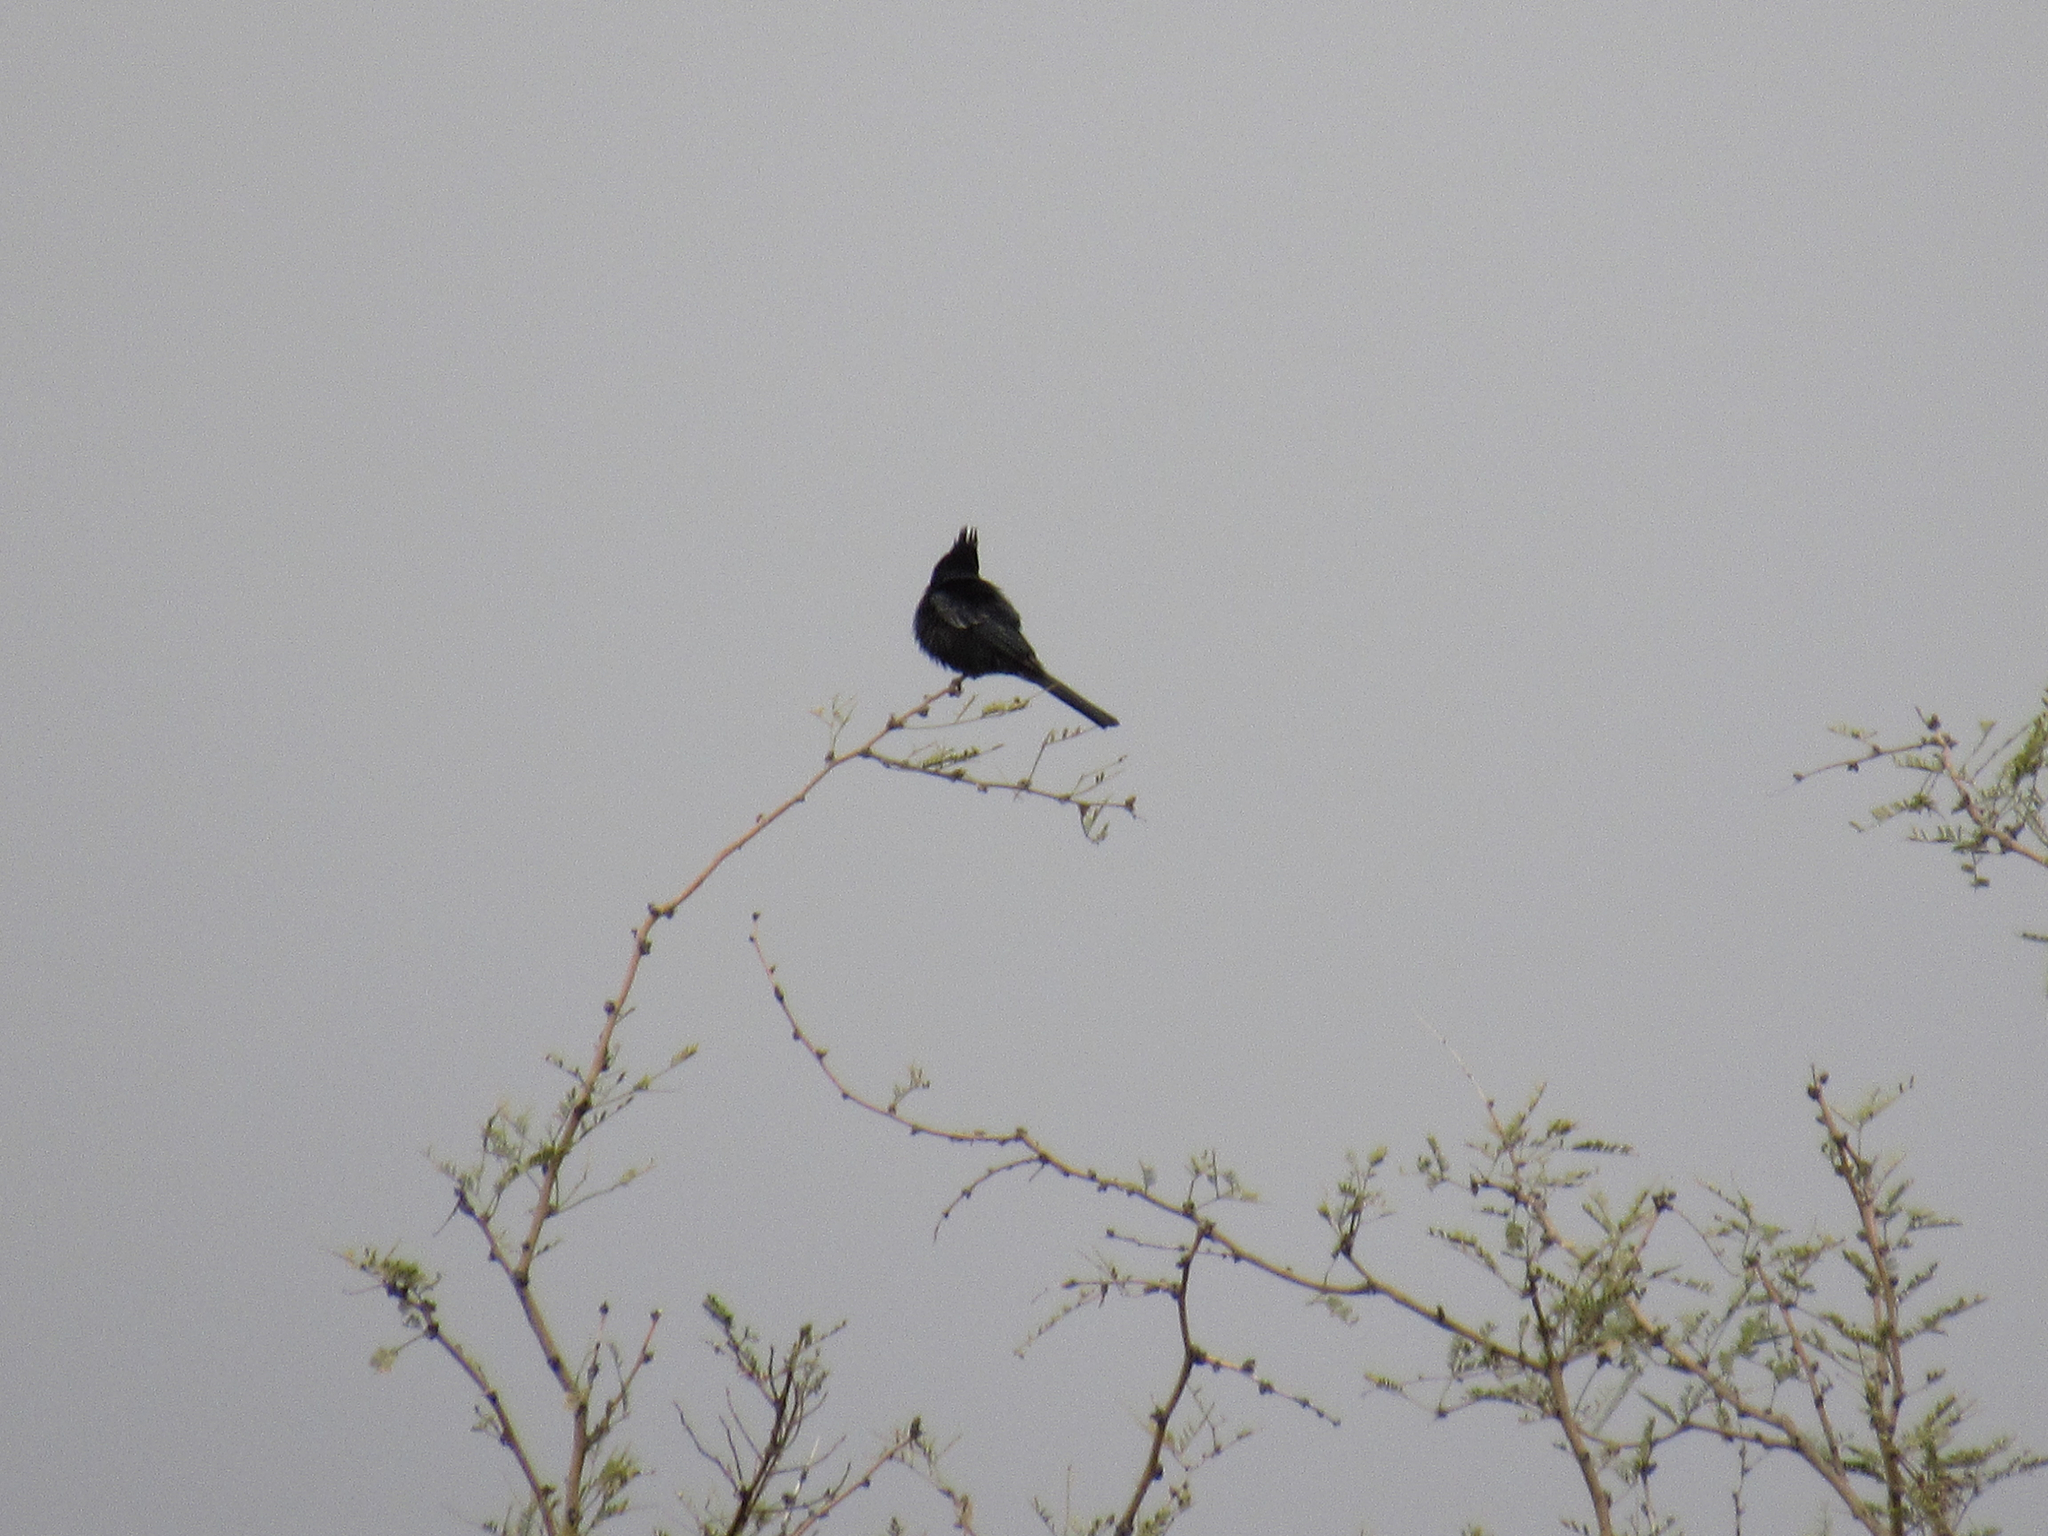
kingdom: Animalia
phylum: Chordata
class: Aves
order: Passeriformes
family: Ptilogonatidae
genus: Phainopepla
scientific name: Phainopepla nitens
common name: Phainopepla
